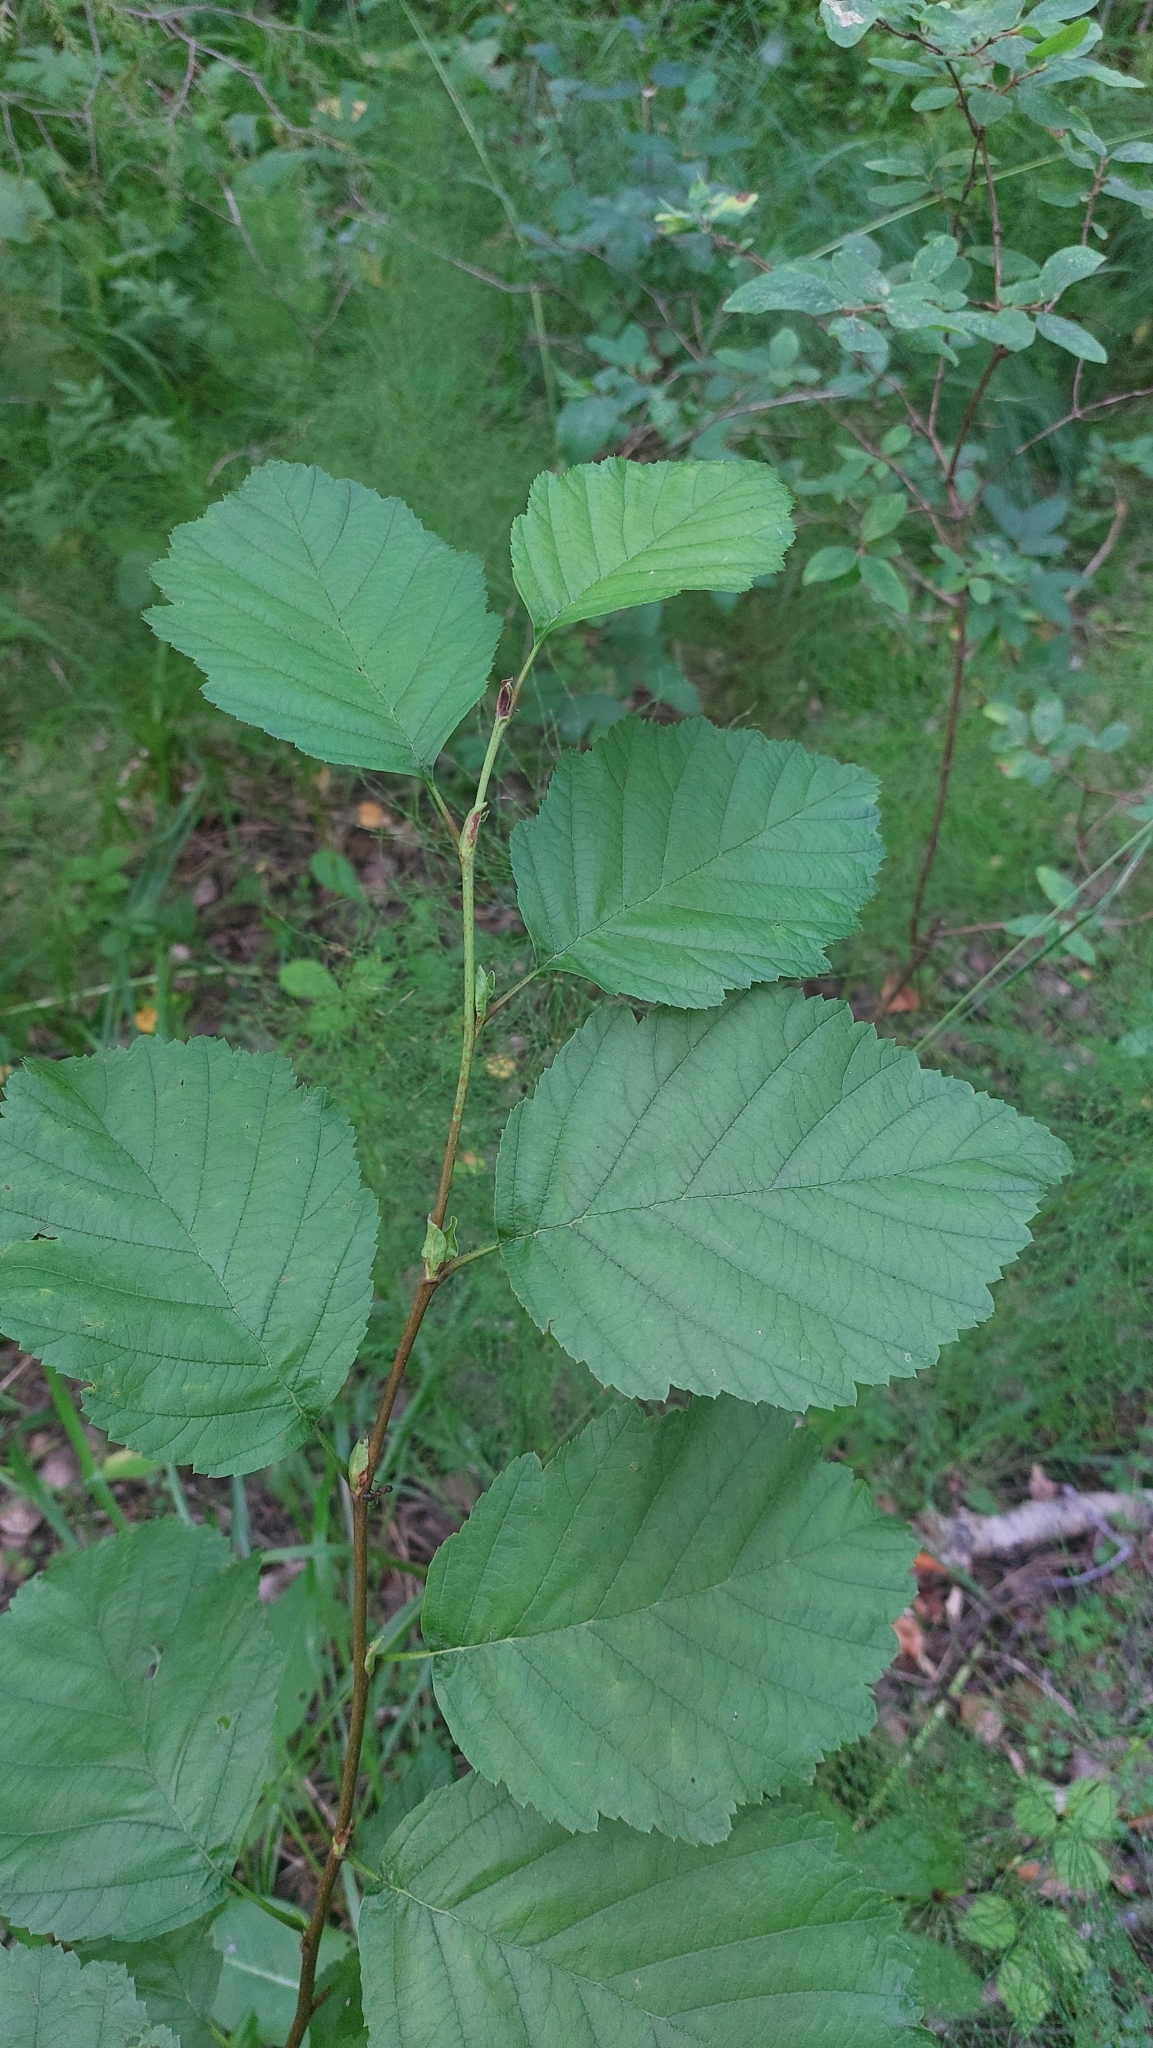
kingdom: Plantae
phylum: Tracheophyta
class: Magnoliopsida
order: Fagales
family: Betulaceae
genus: Alnus
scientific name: Alnus incana
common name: Grey alder
